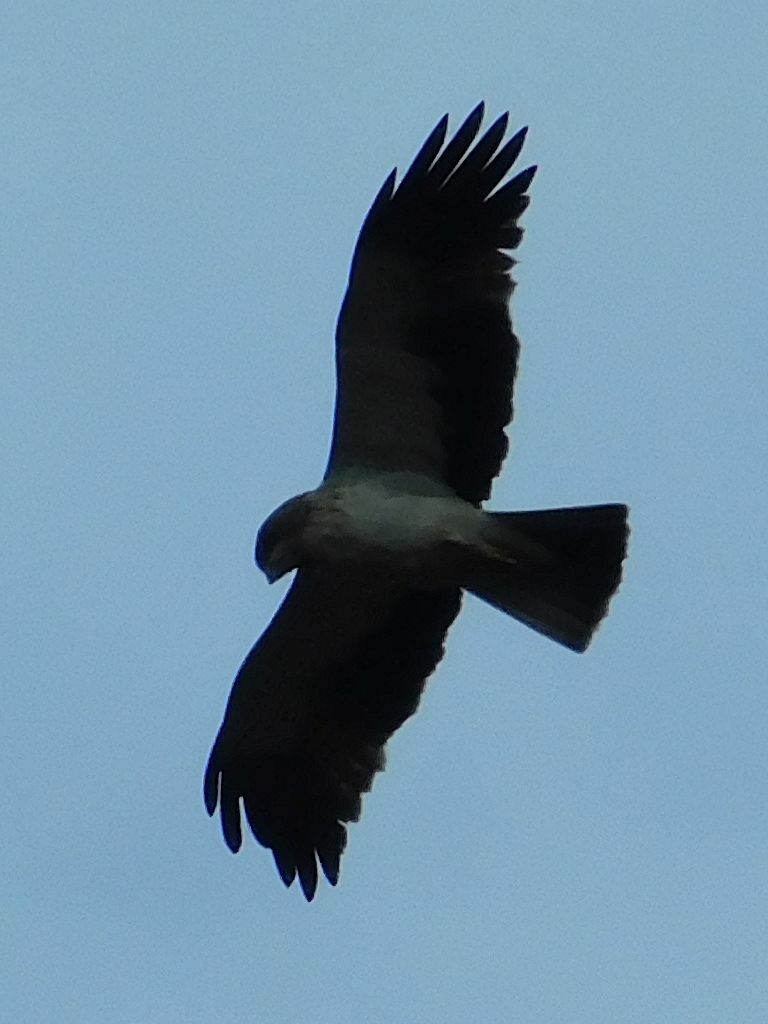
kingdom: Animalia
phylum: Chordata
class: Aves
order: Accipitriformes
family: Accipitridae
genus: Hieraaetus
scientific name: Hieraaetus pennatus
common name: Booted eagle
